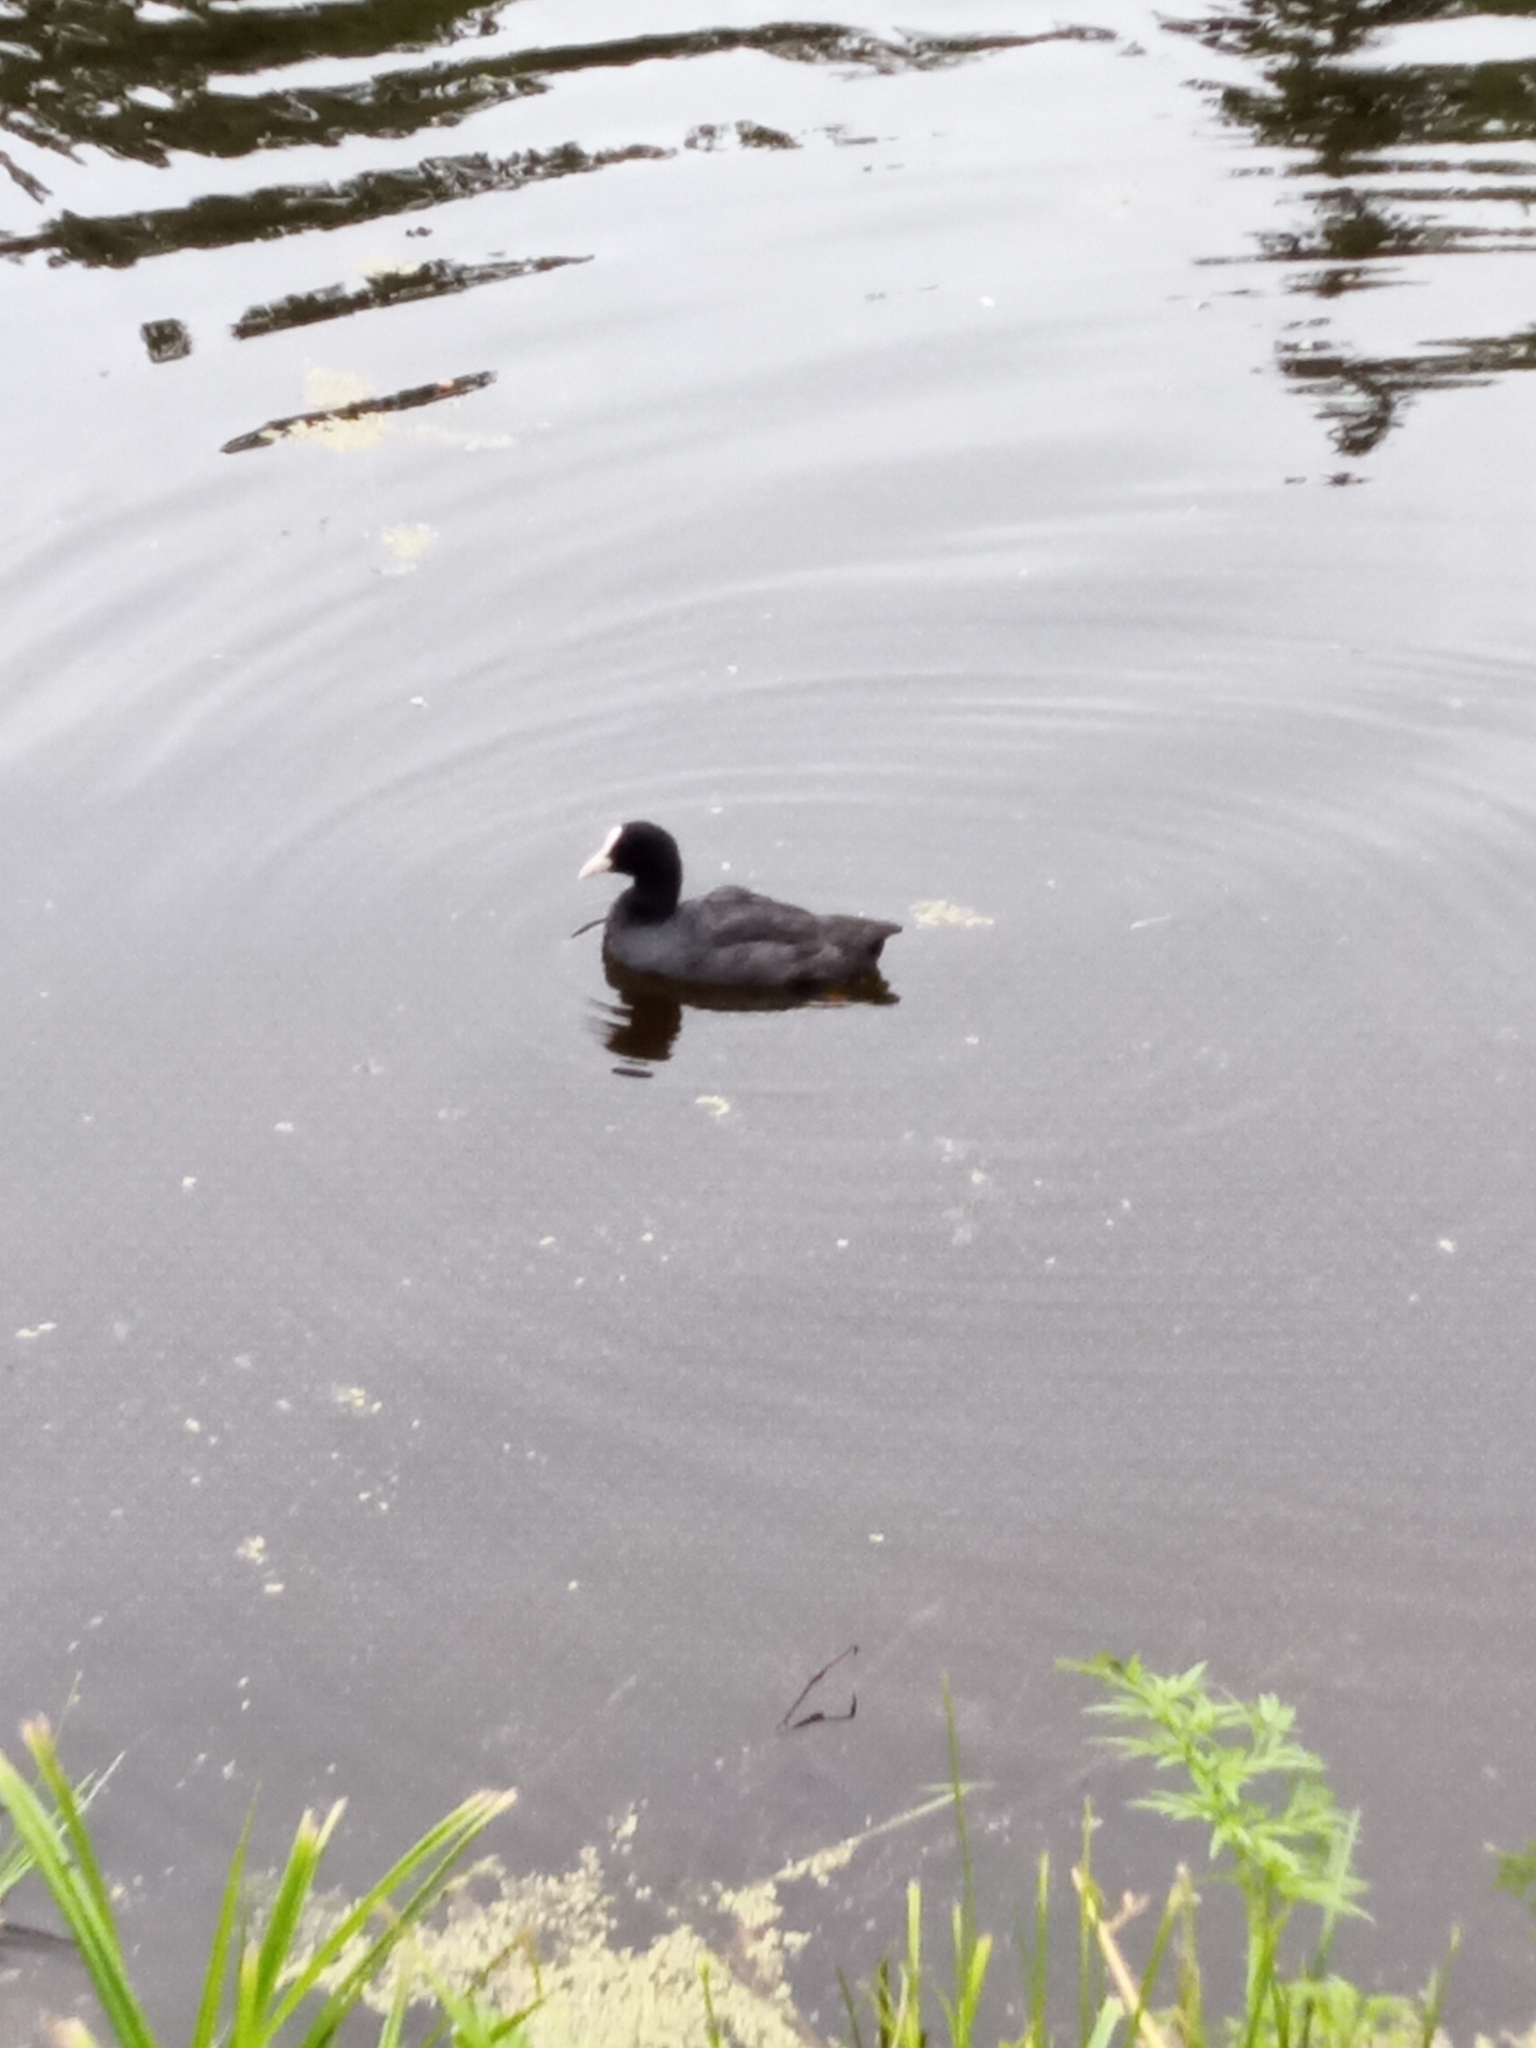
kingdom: Animalia
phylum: Chordata
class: Aves
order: Gruiformes
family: Rallidae
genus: Fulica
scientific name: Fulica atra
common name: Eurasian coot
